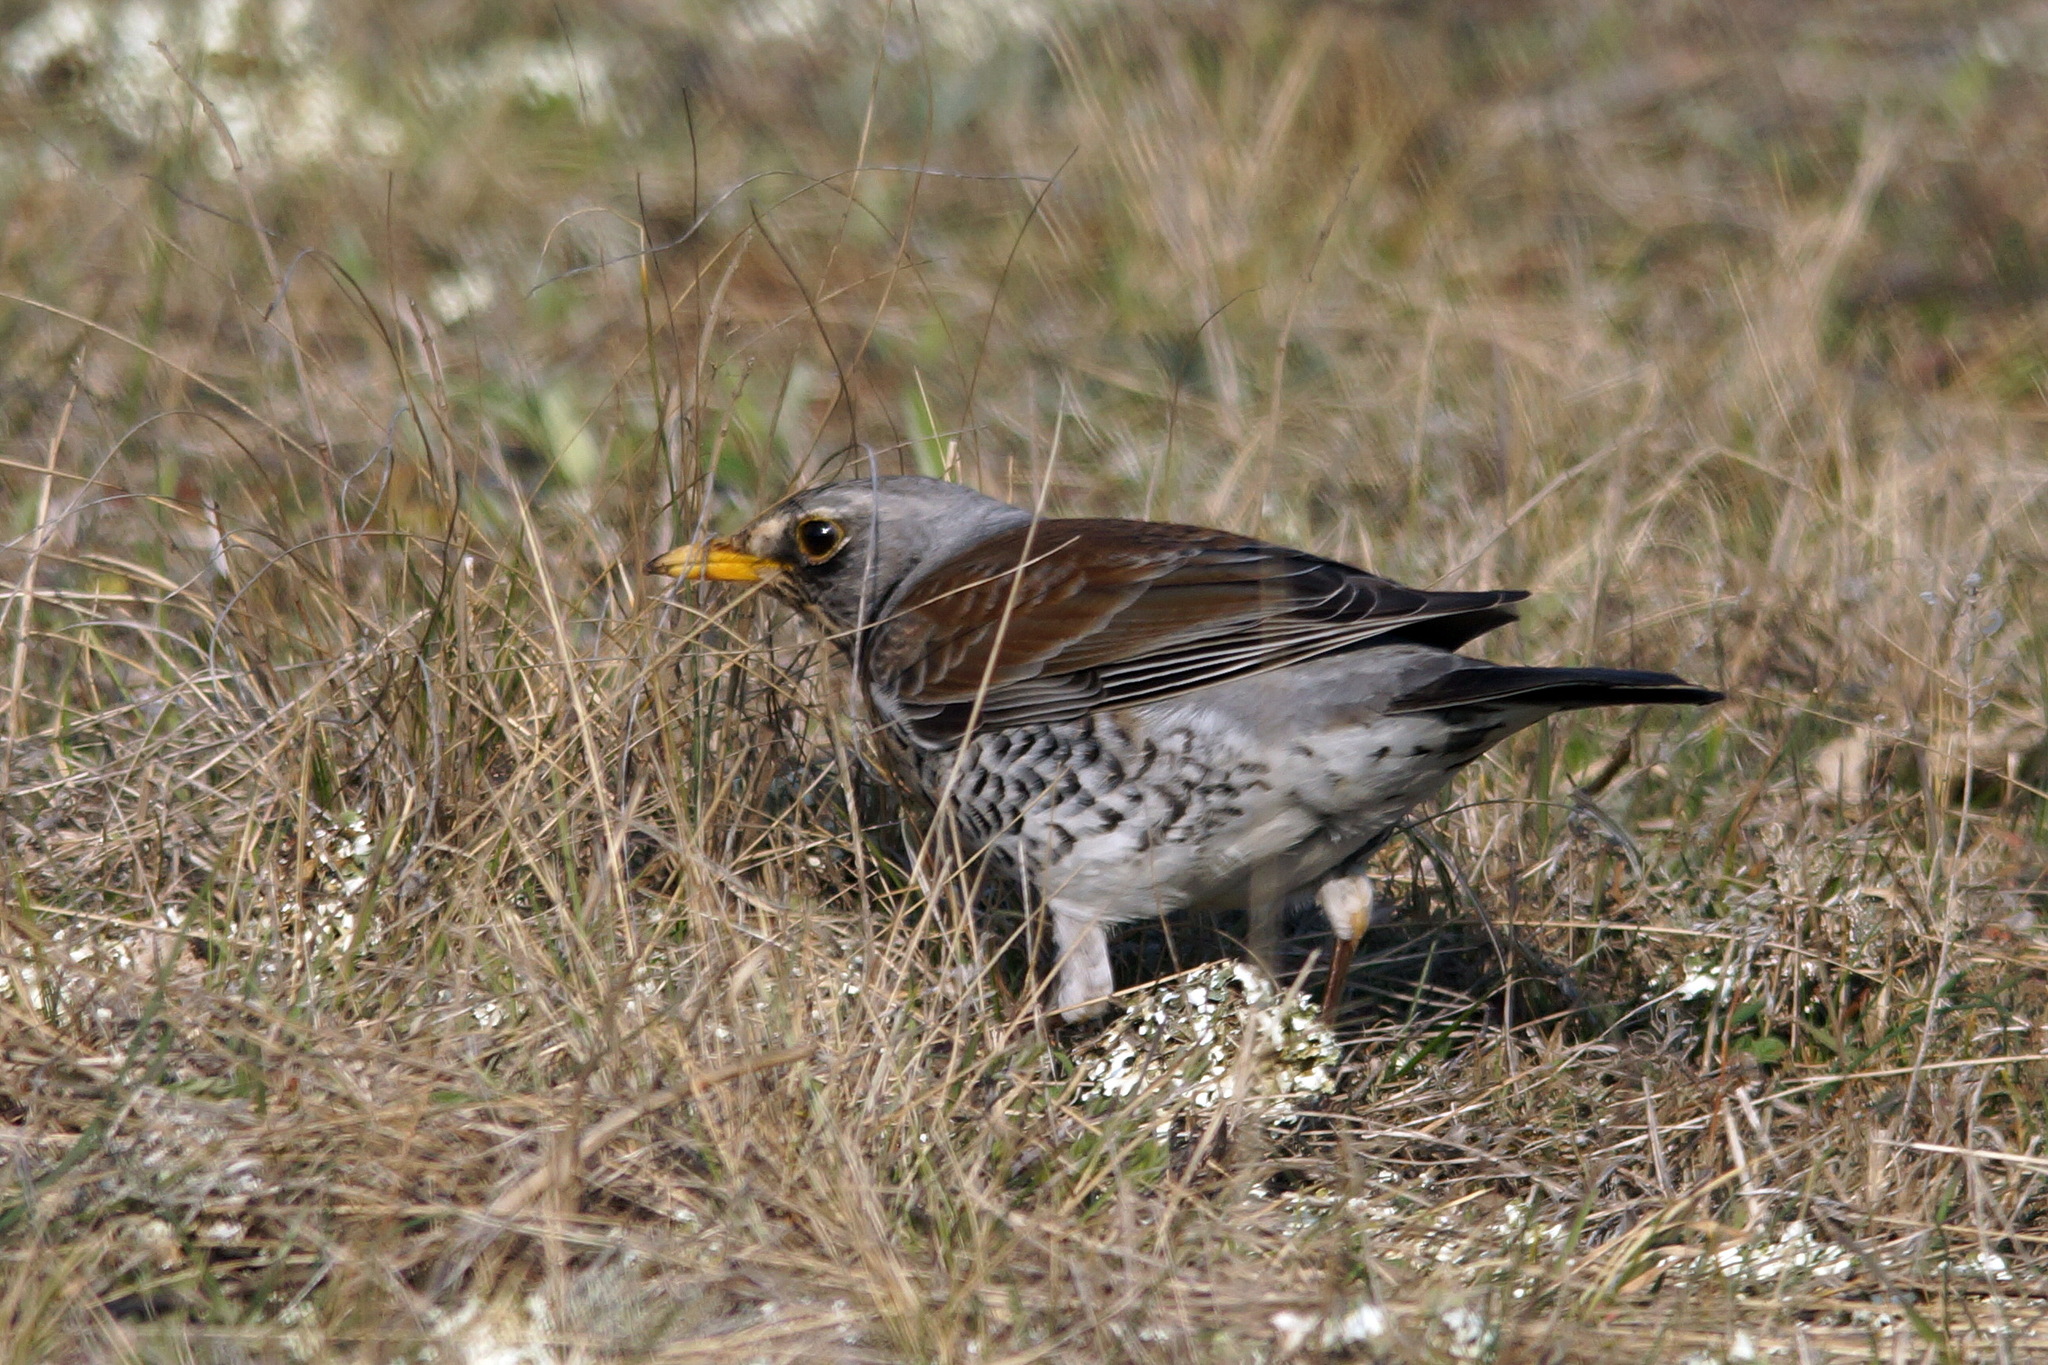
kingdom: Animalia
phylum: Chordata
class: Aves
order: Passeriformes
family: Turdidae
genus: Turdus
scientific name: Turdus pilaris
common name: Fieldfare
